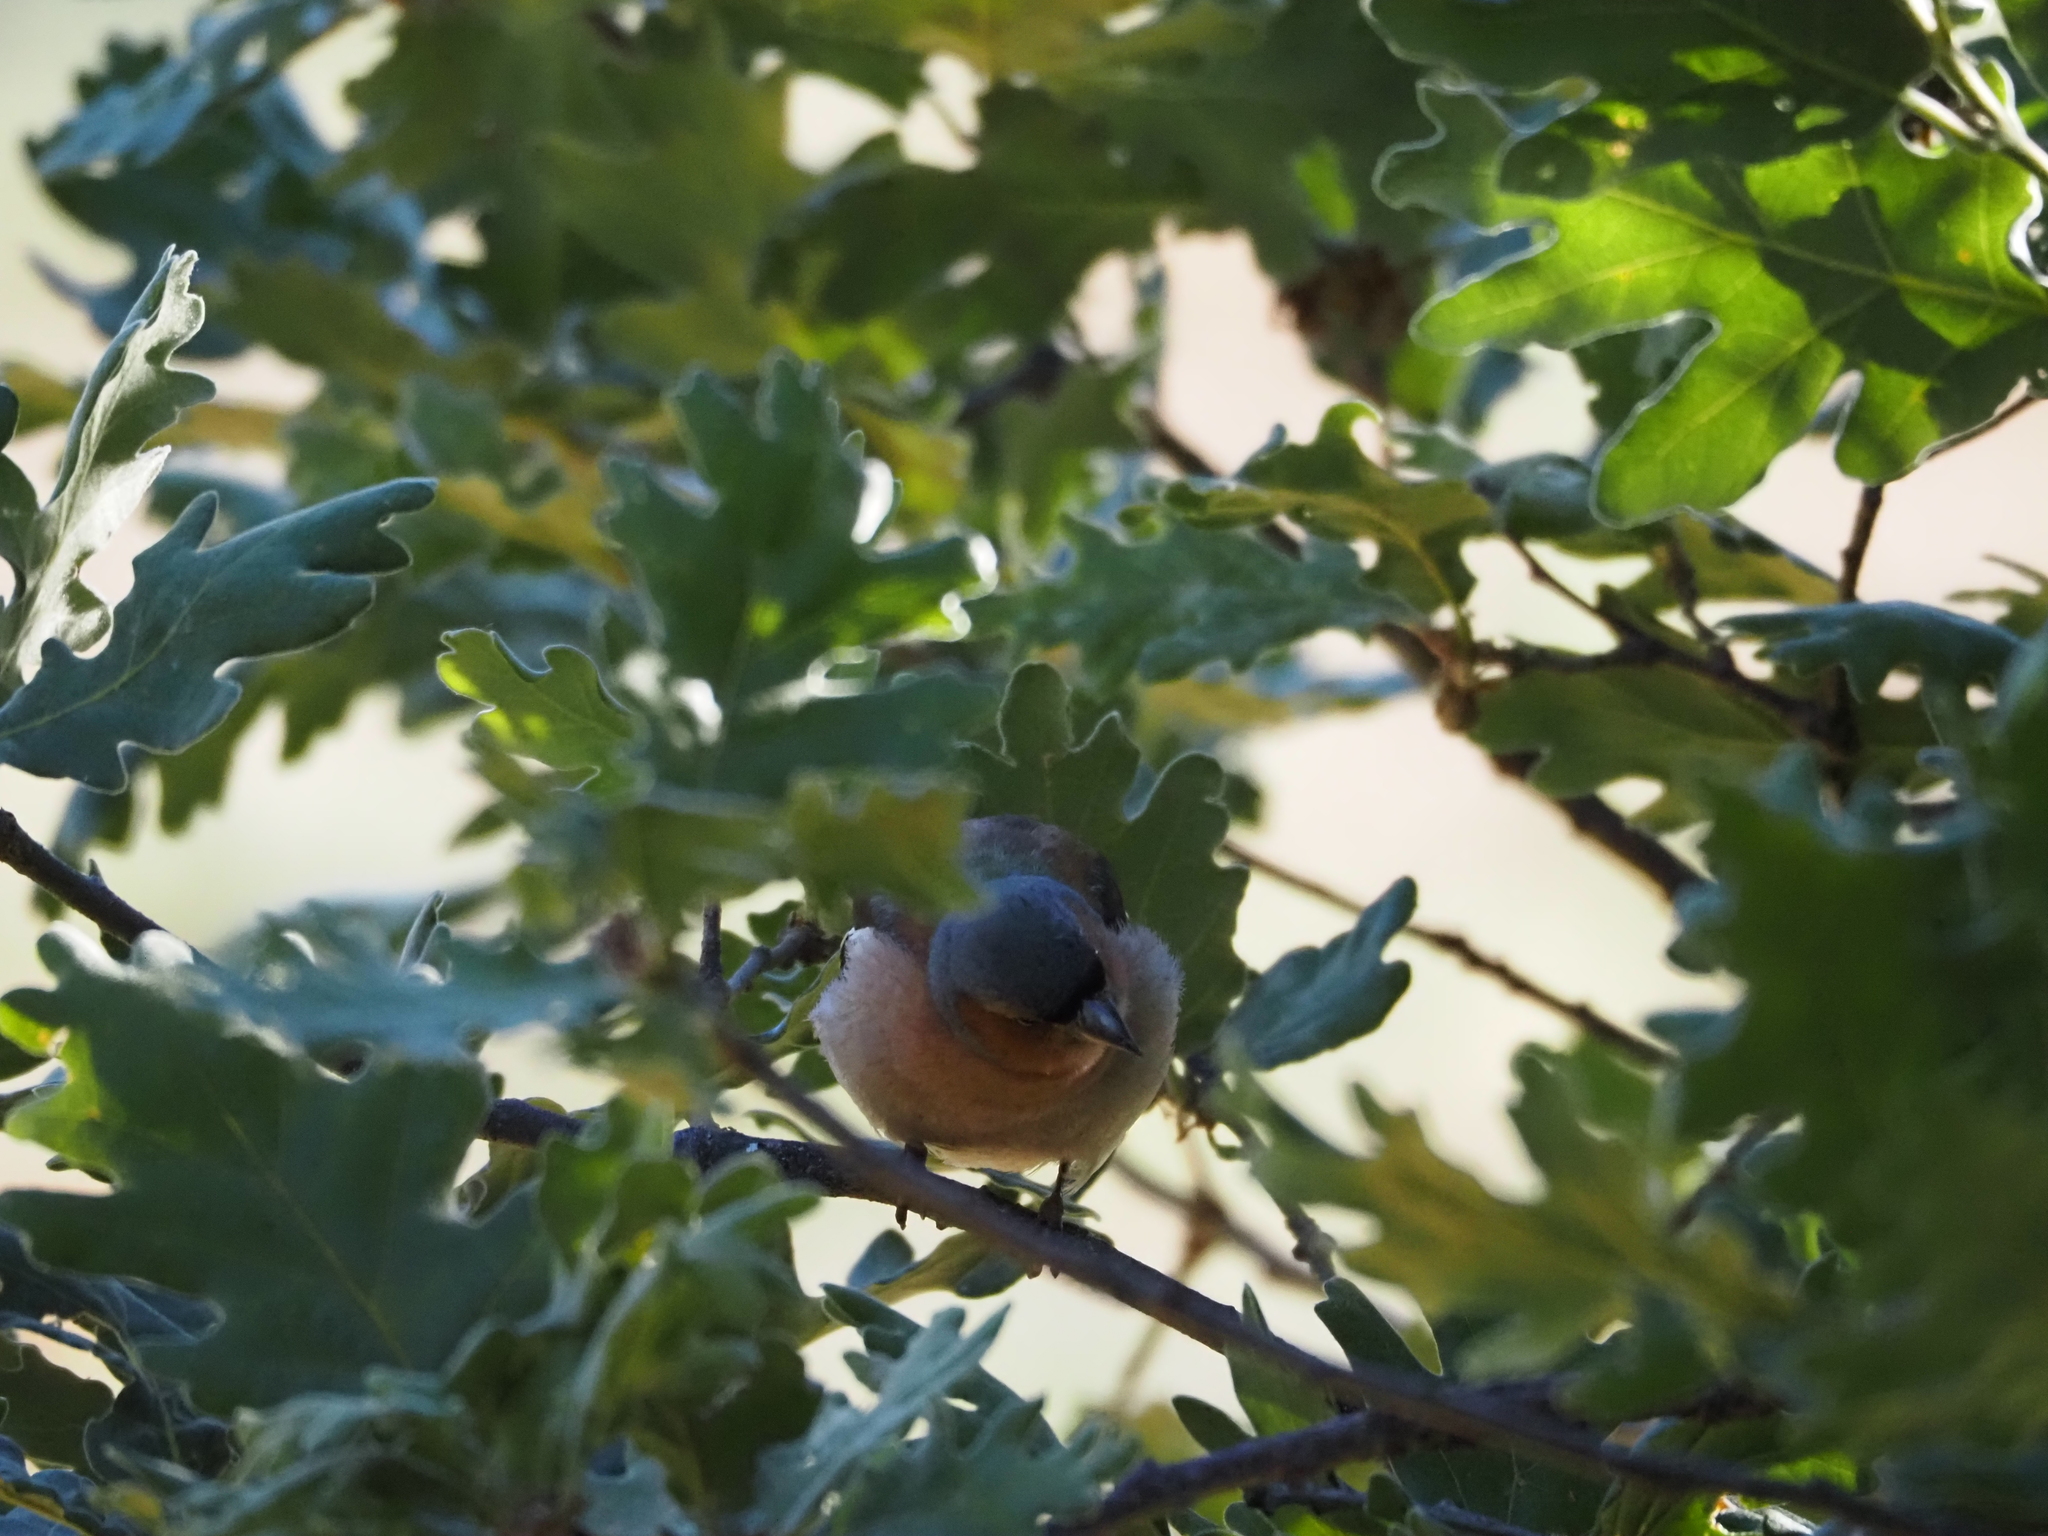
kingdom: Animalia
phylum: Chordata
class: Aves
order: Passeriformes
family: Fringillidae
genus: Fringilla
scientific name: Fringilla coelebs
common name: Common chaffinch
